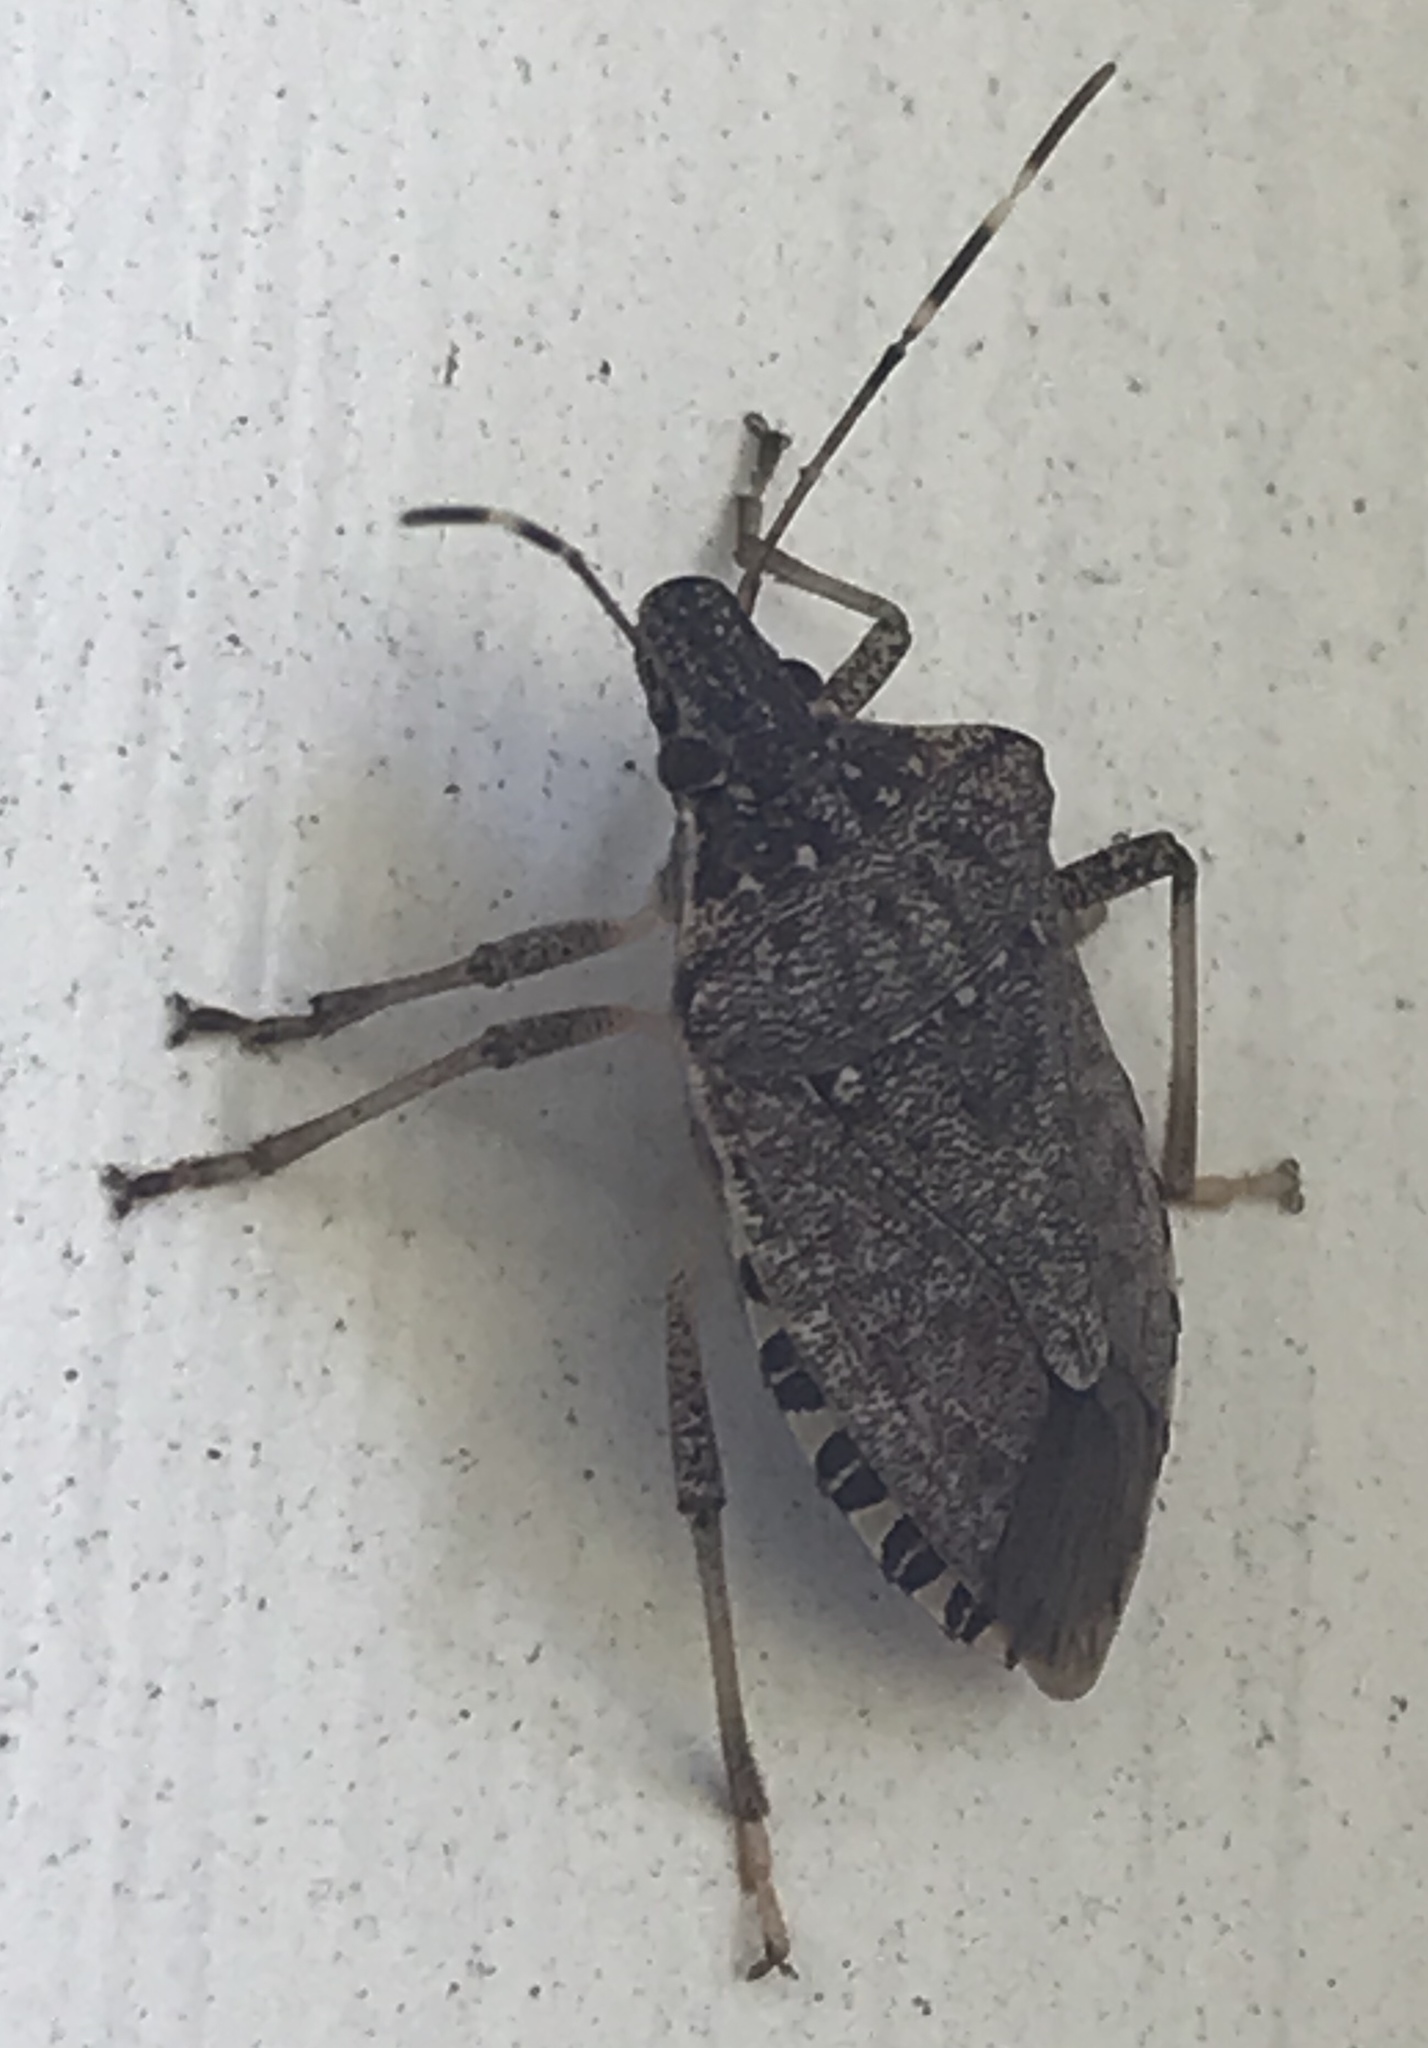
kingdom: Animalia
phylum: Arthropoda
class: Insecta
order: Hemiptera
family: Pentatomidae
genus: Halyomorpha
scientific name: Halyomorpha halys
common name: Brown marmorated stink bug
